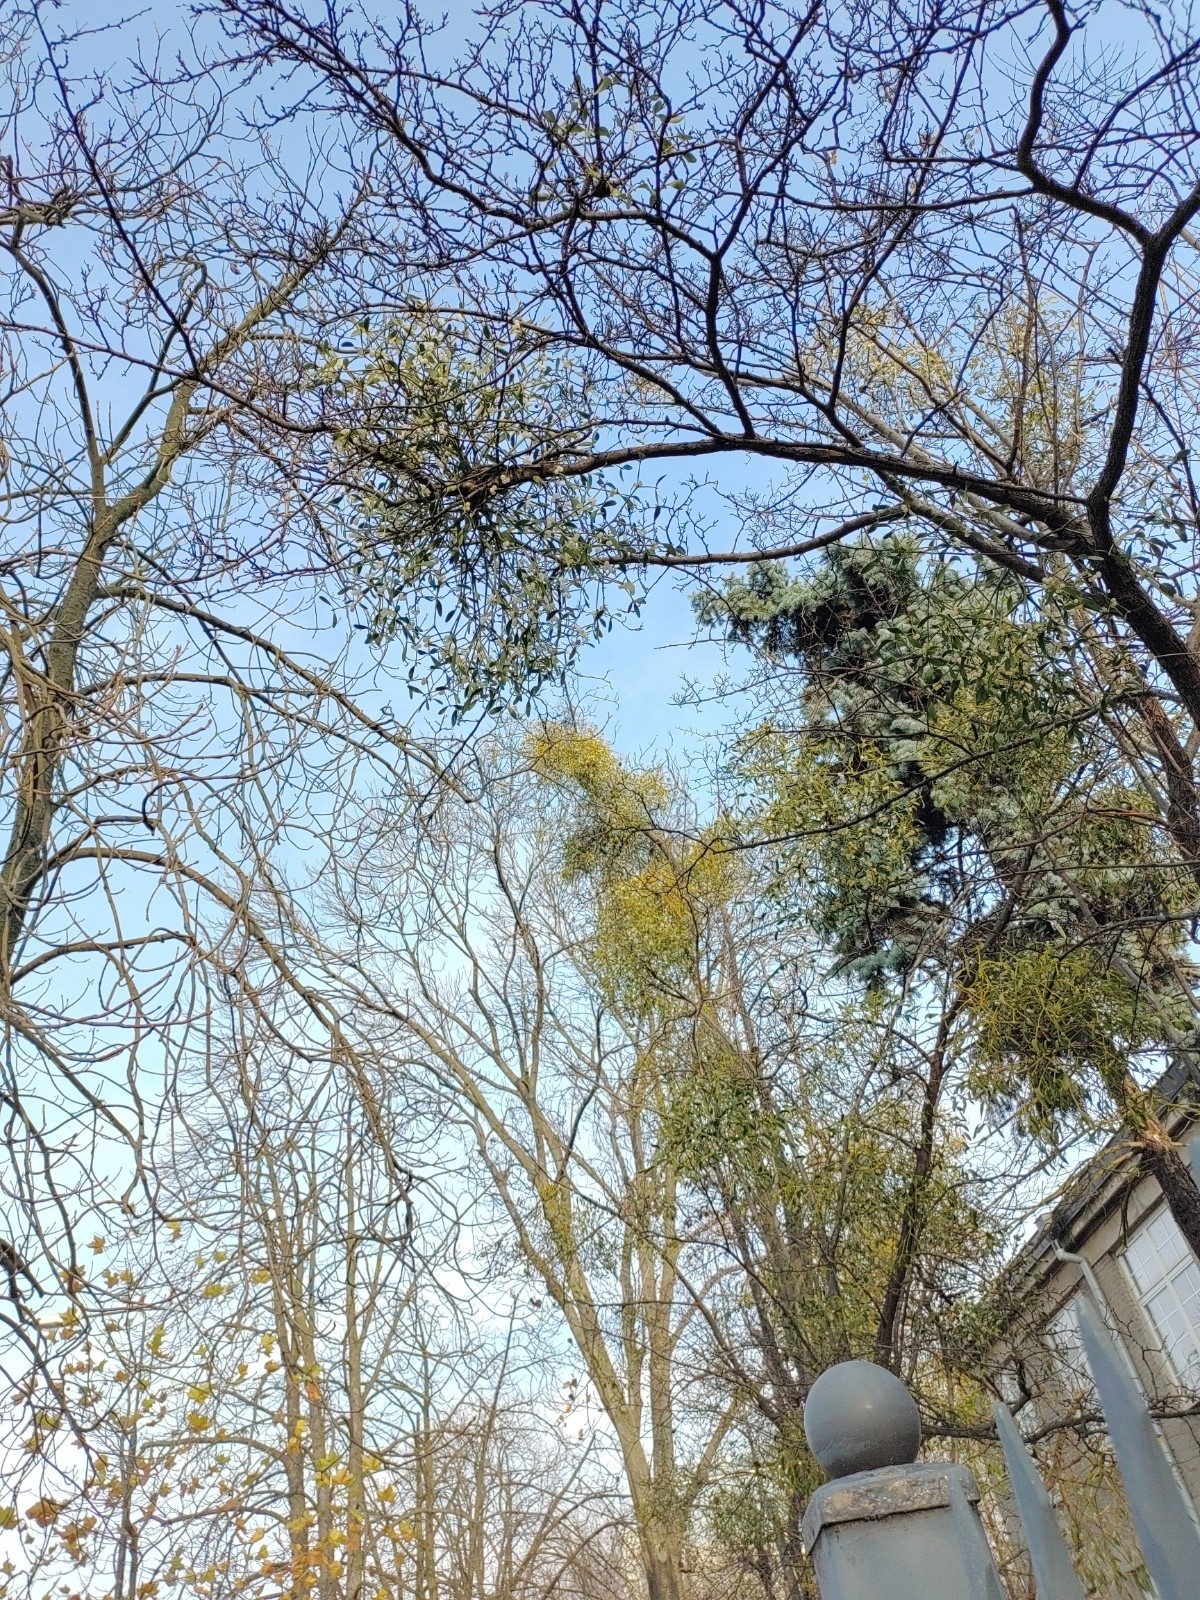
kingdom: Plantae
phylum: Tracheophyta
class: Magnoliopsida
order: Santalales
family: Viscaceae
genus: Viscum
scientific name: Viscum album
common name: Mistletoe
